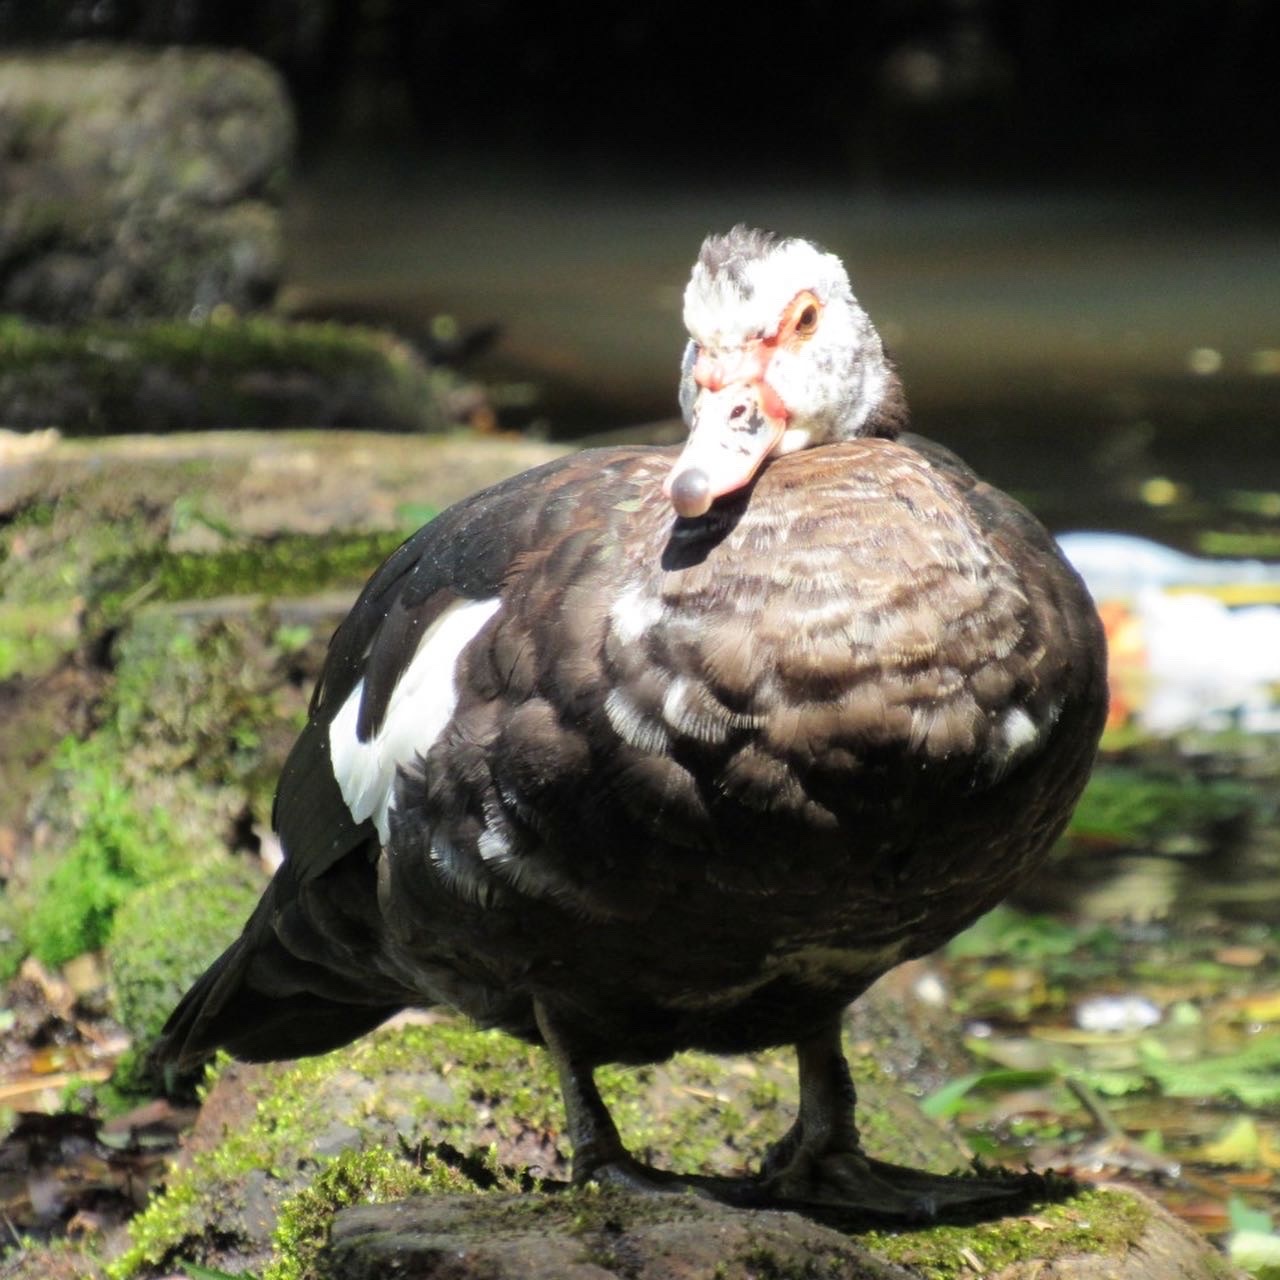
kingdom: Animalia
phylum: Chordata
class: Aves
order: Anseriformes
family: Anatidae
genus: Cairina
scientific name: Cairina moschata
